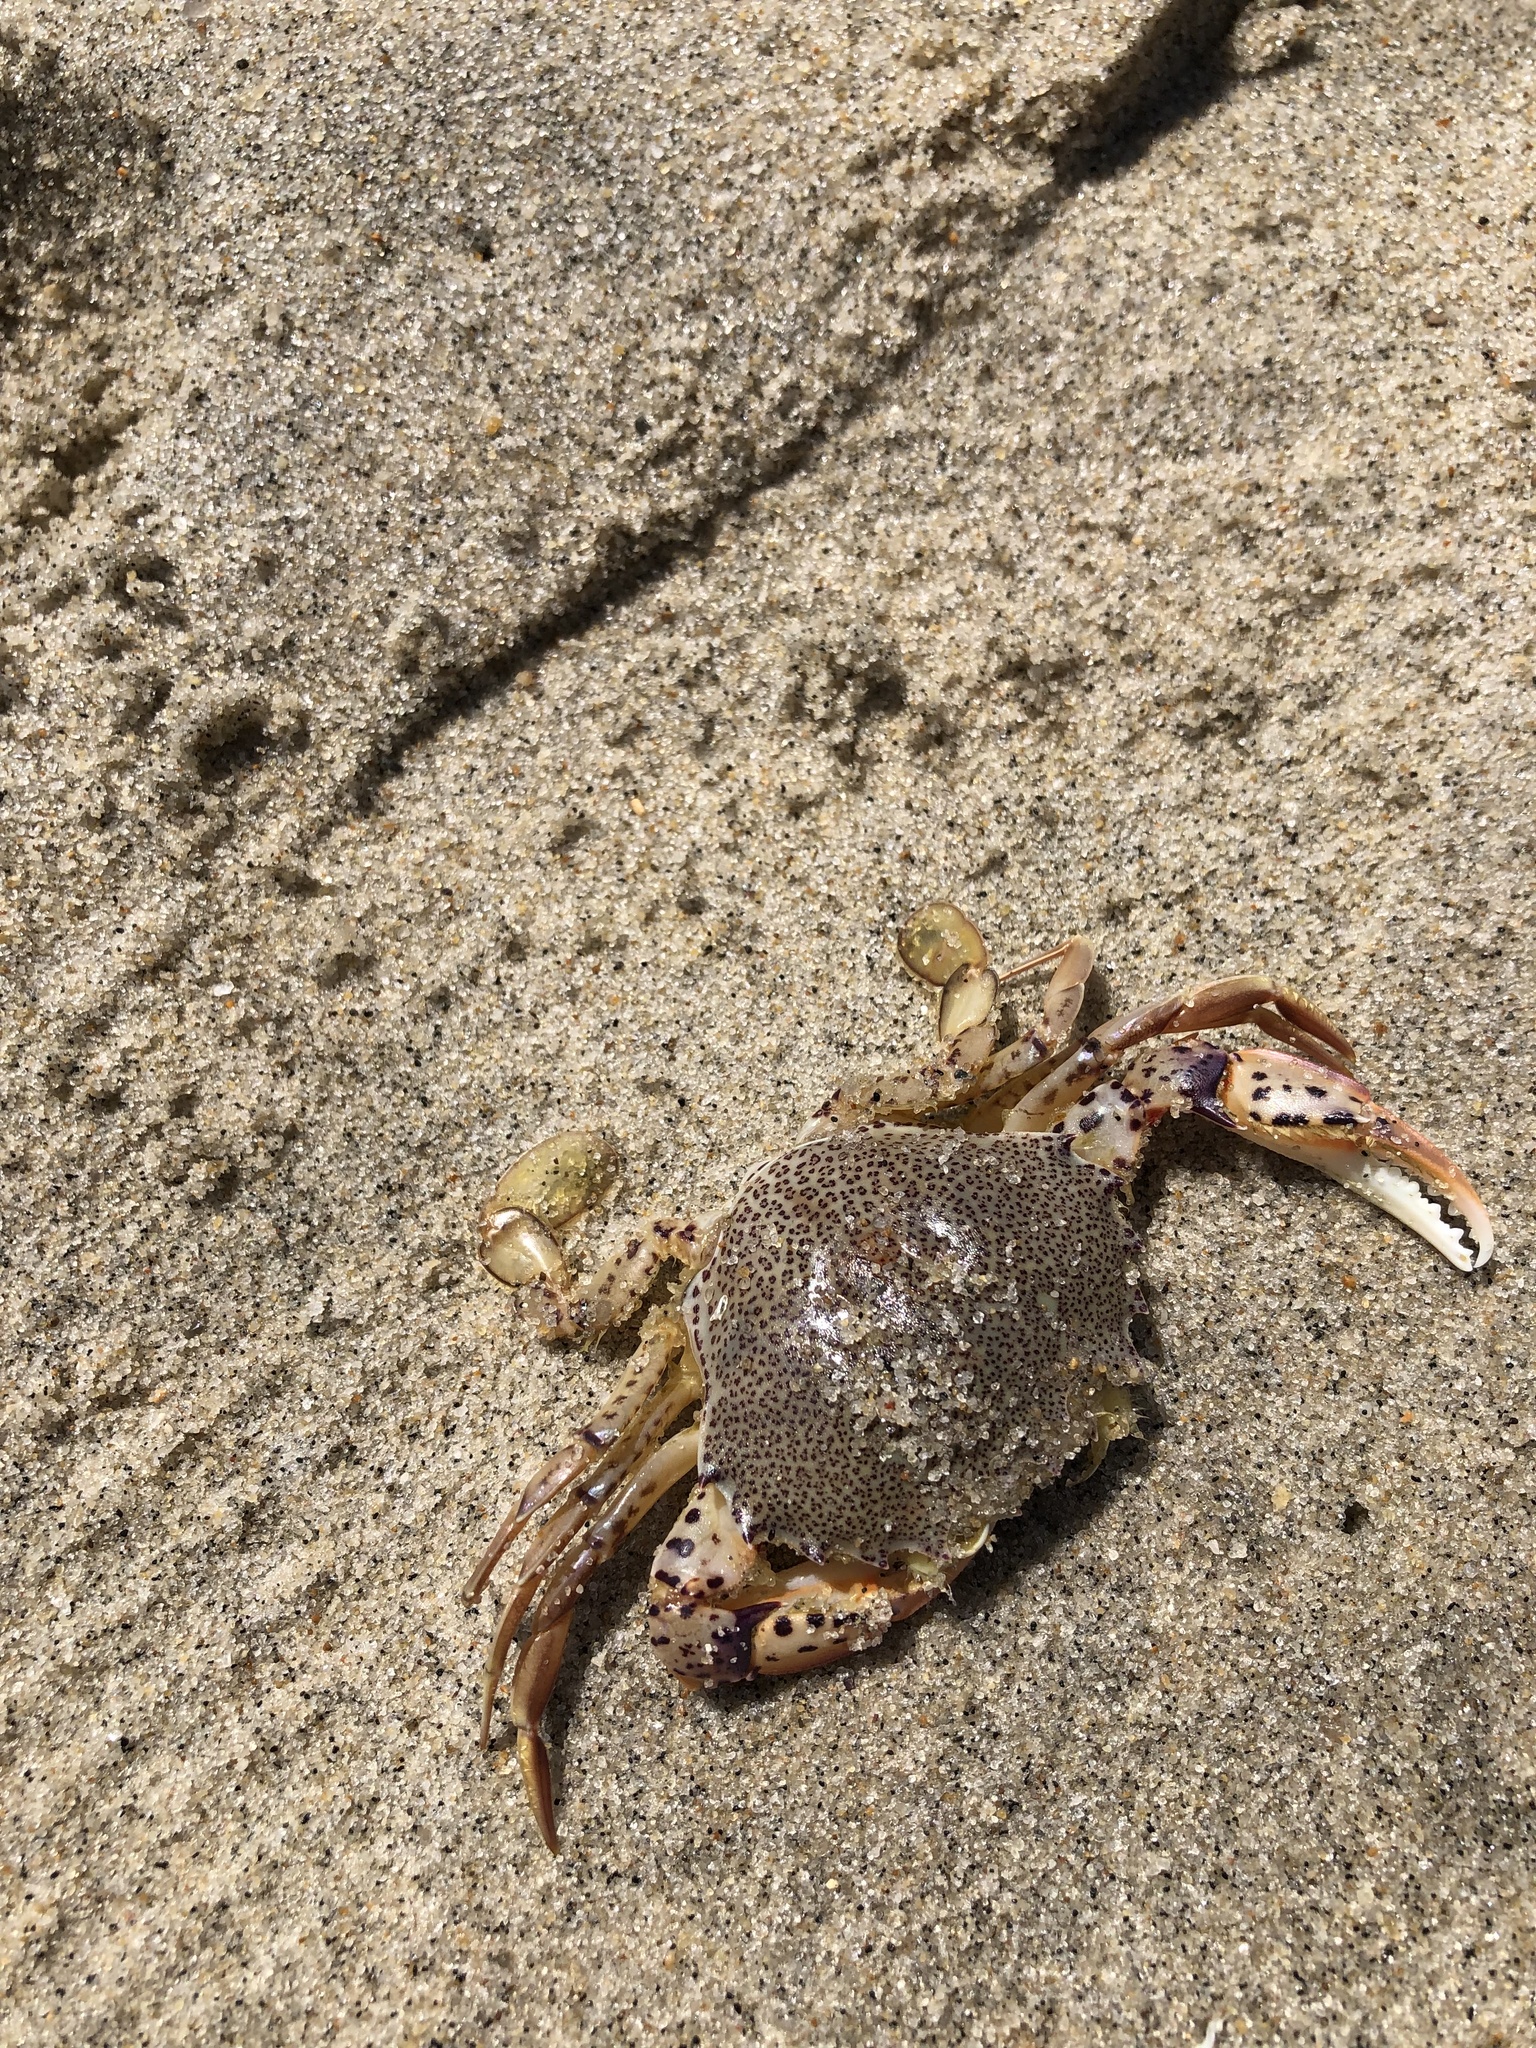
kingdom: Animalia
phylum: Arthropoda
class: Malacostraca
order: Decapoda
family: Ovalipidae
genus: Ovalipes
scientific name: Ovalipes ocellatus
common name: Lady crab
